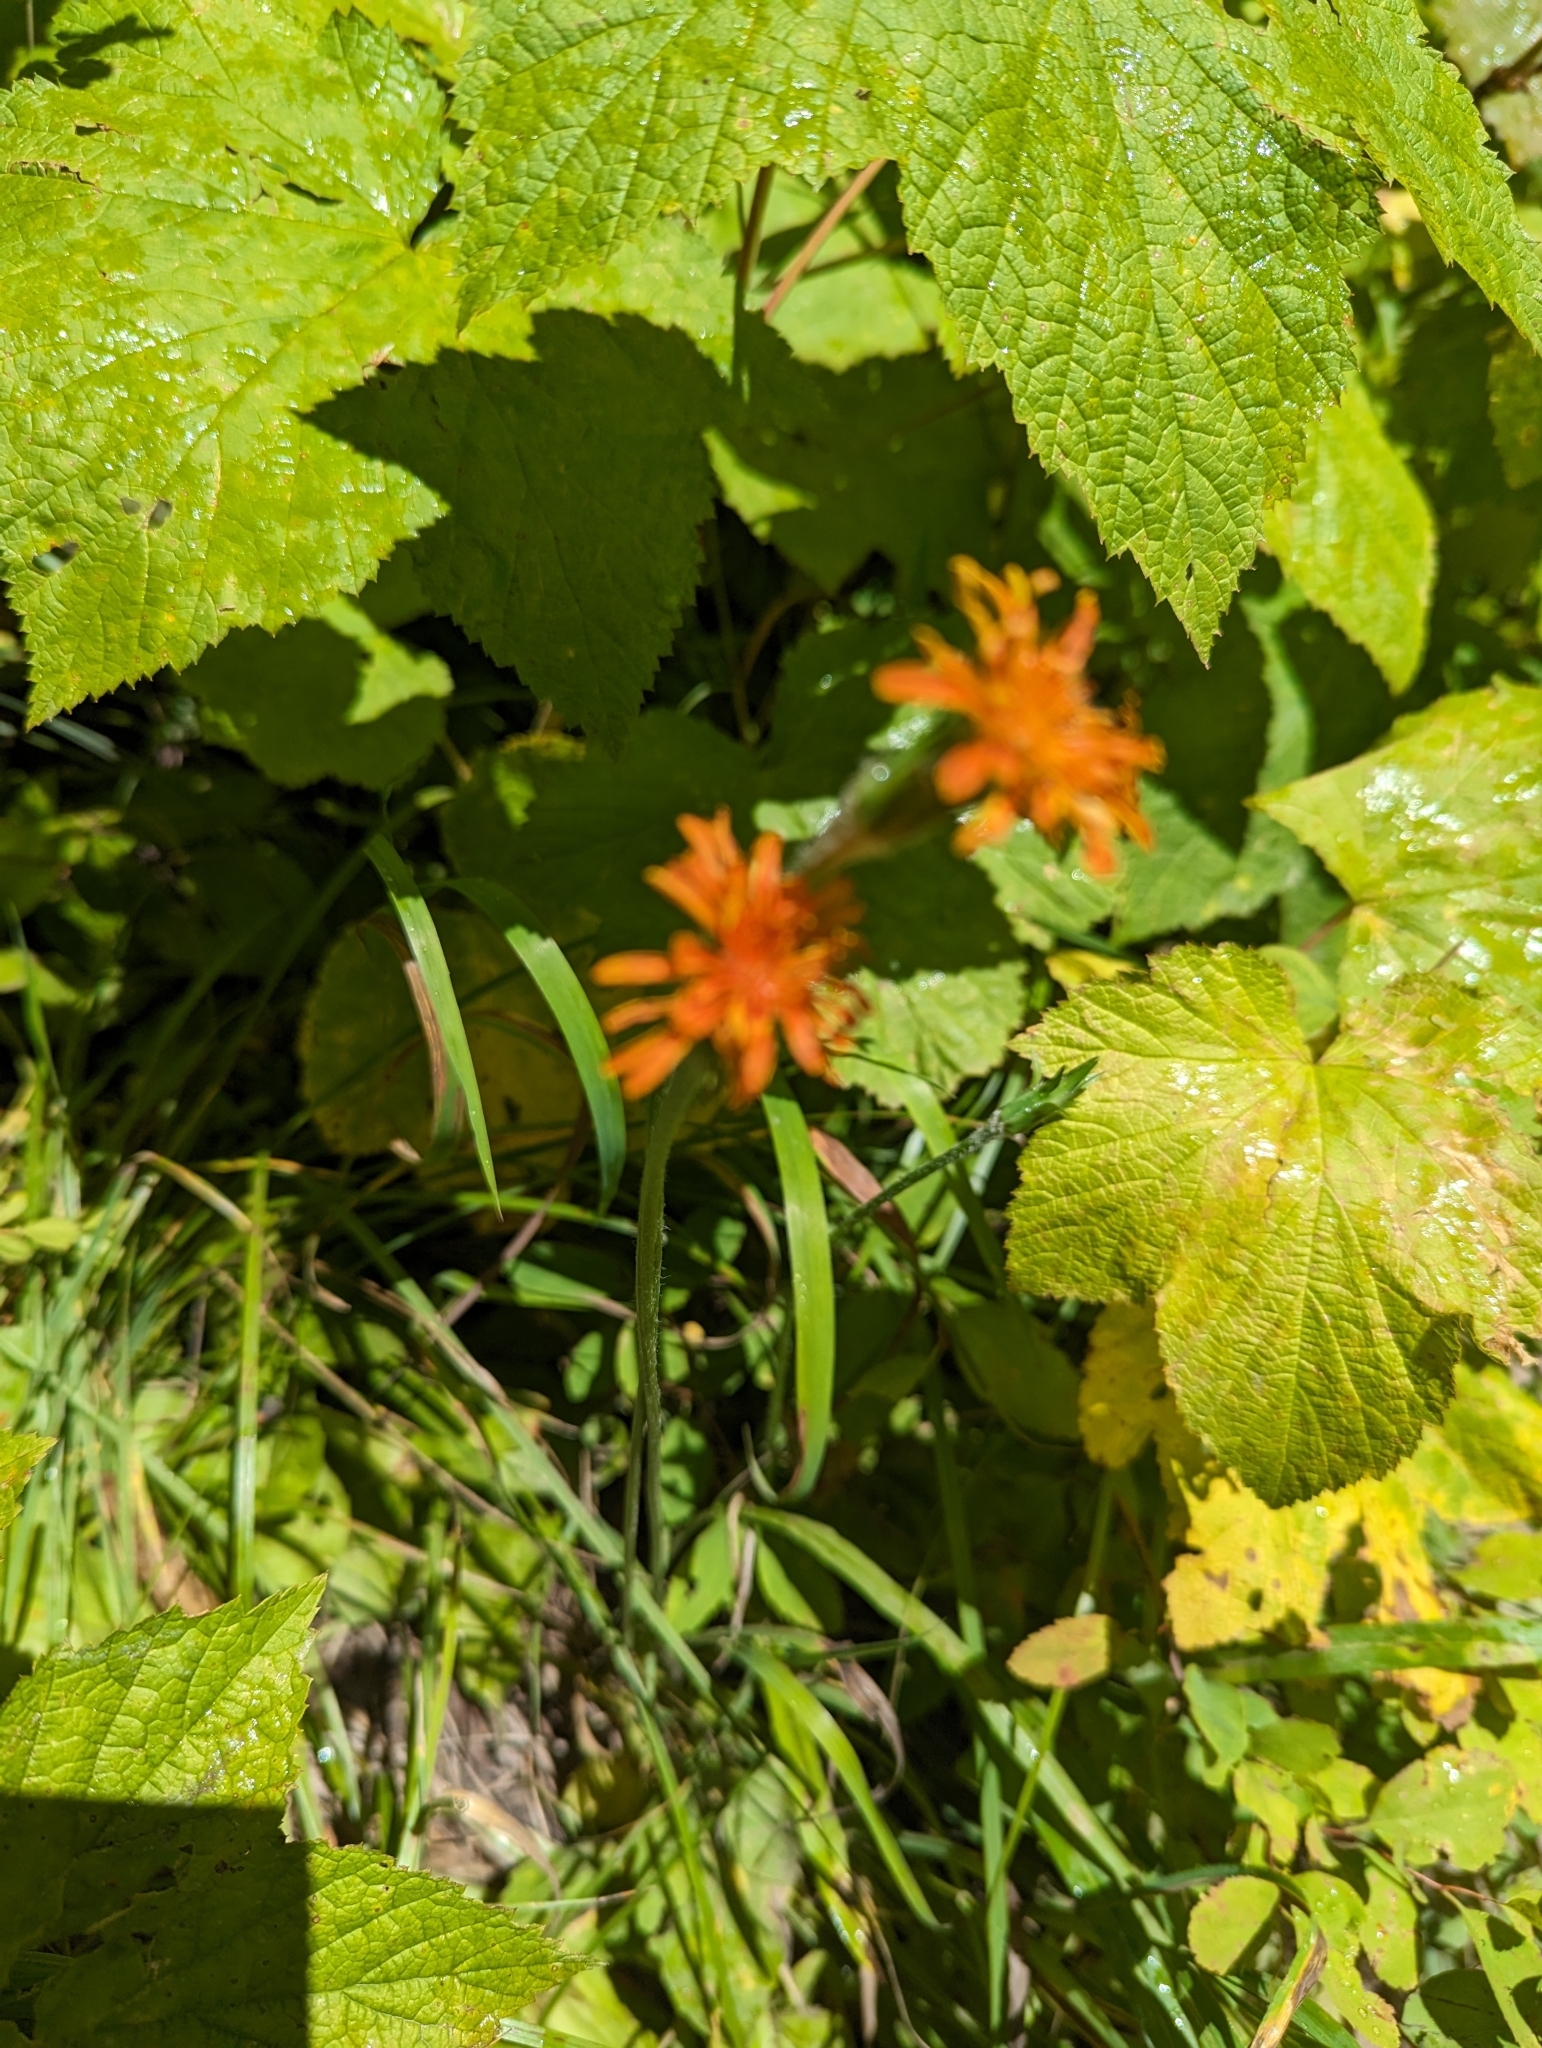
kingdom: Plantae
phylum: Tracheophyta
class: Magnoliopsida
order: Asterales
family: Asteraceae
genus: Agoseris
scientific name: Agoseris aurantiaca
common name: Mountain agoseris
